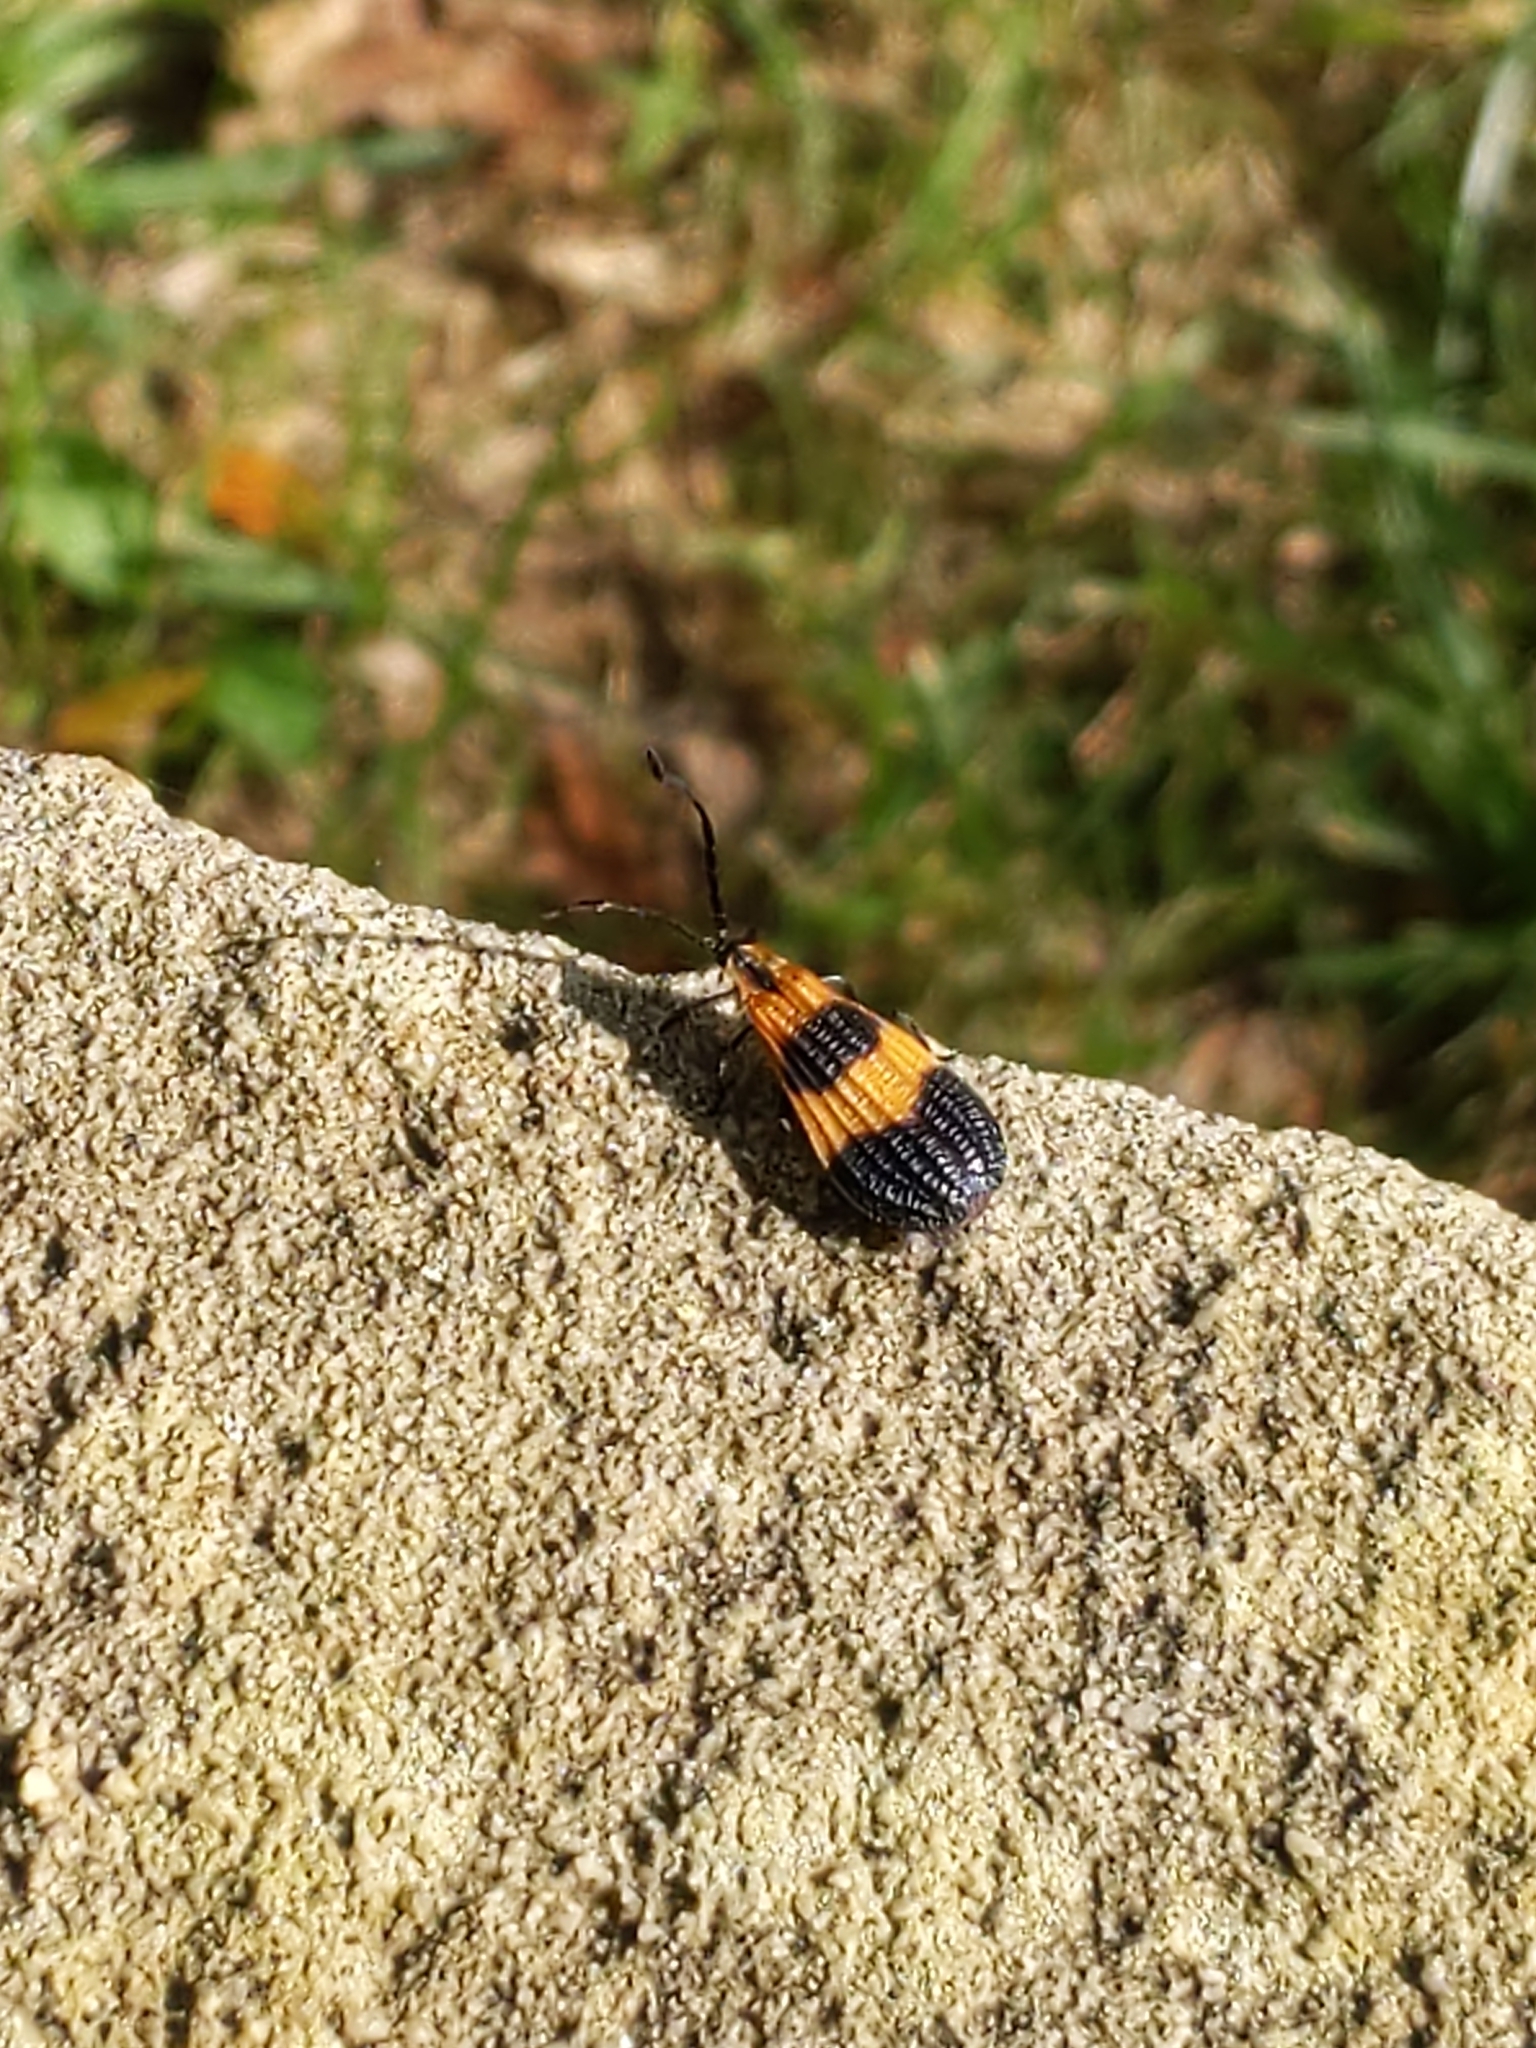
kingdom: Animalia
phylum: Arthropoda
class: Insecta
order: Coleoptera
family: Lycidae
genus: Calopteron
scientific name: Calopteron terminale
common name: End band net-winged beetle
